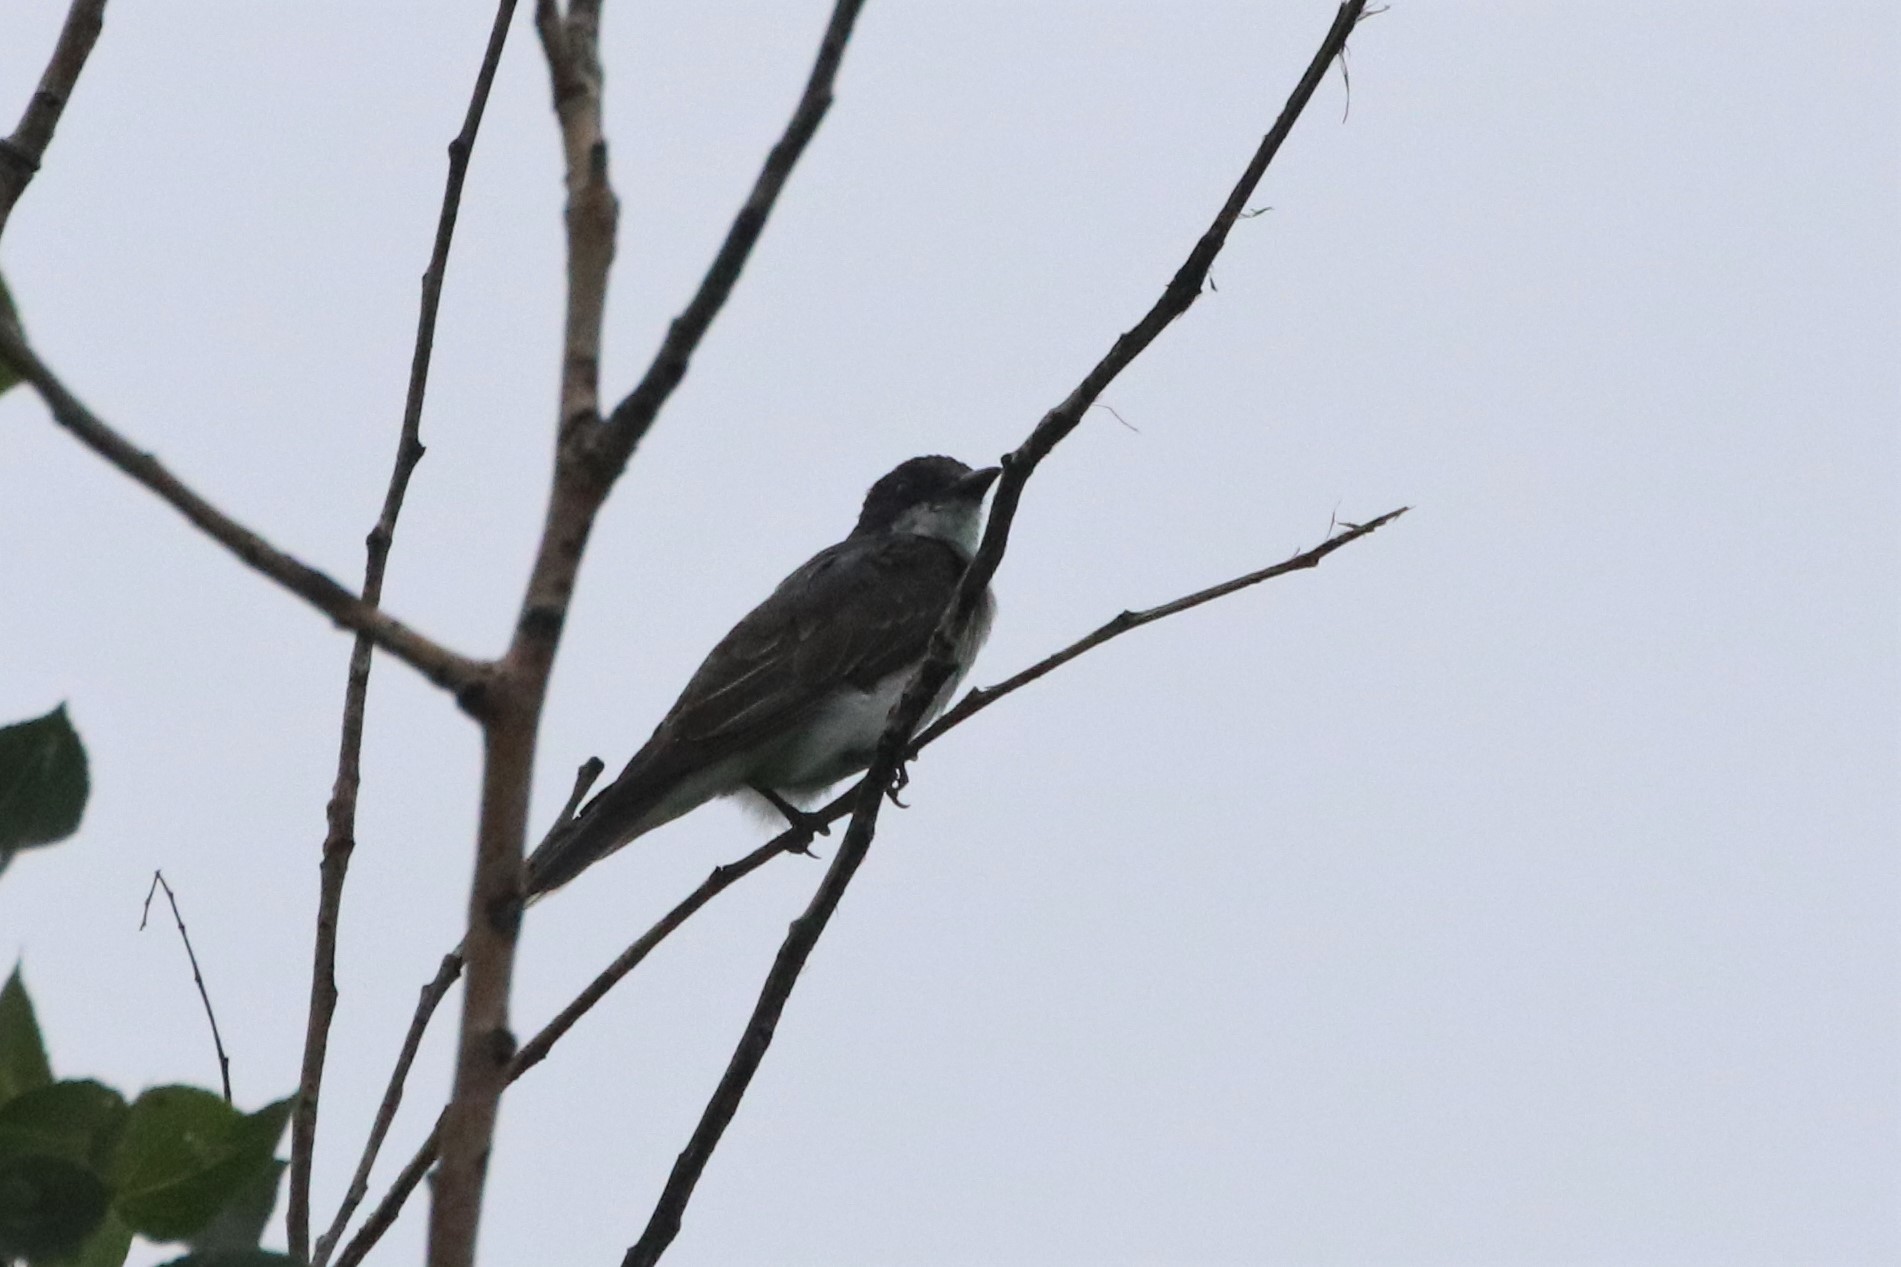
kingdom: Animalia
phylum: Chordata
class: Aves
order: Passeriformes
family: Tyrannidae
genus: Tyrannus
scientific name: Tyrannus tyrannus
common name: Eastern kingbird
